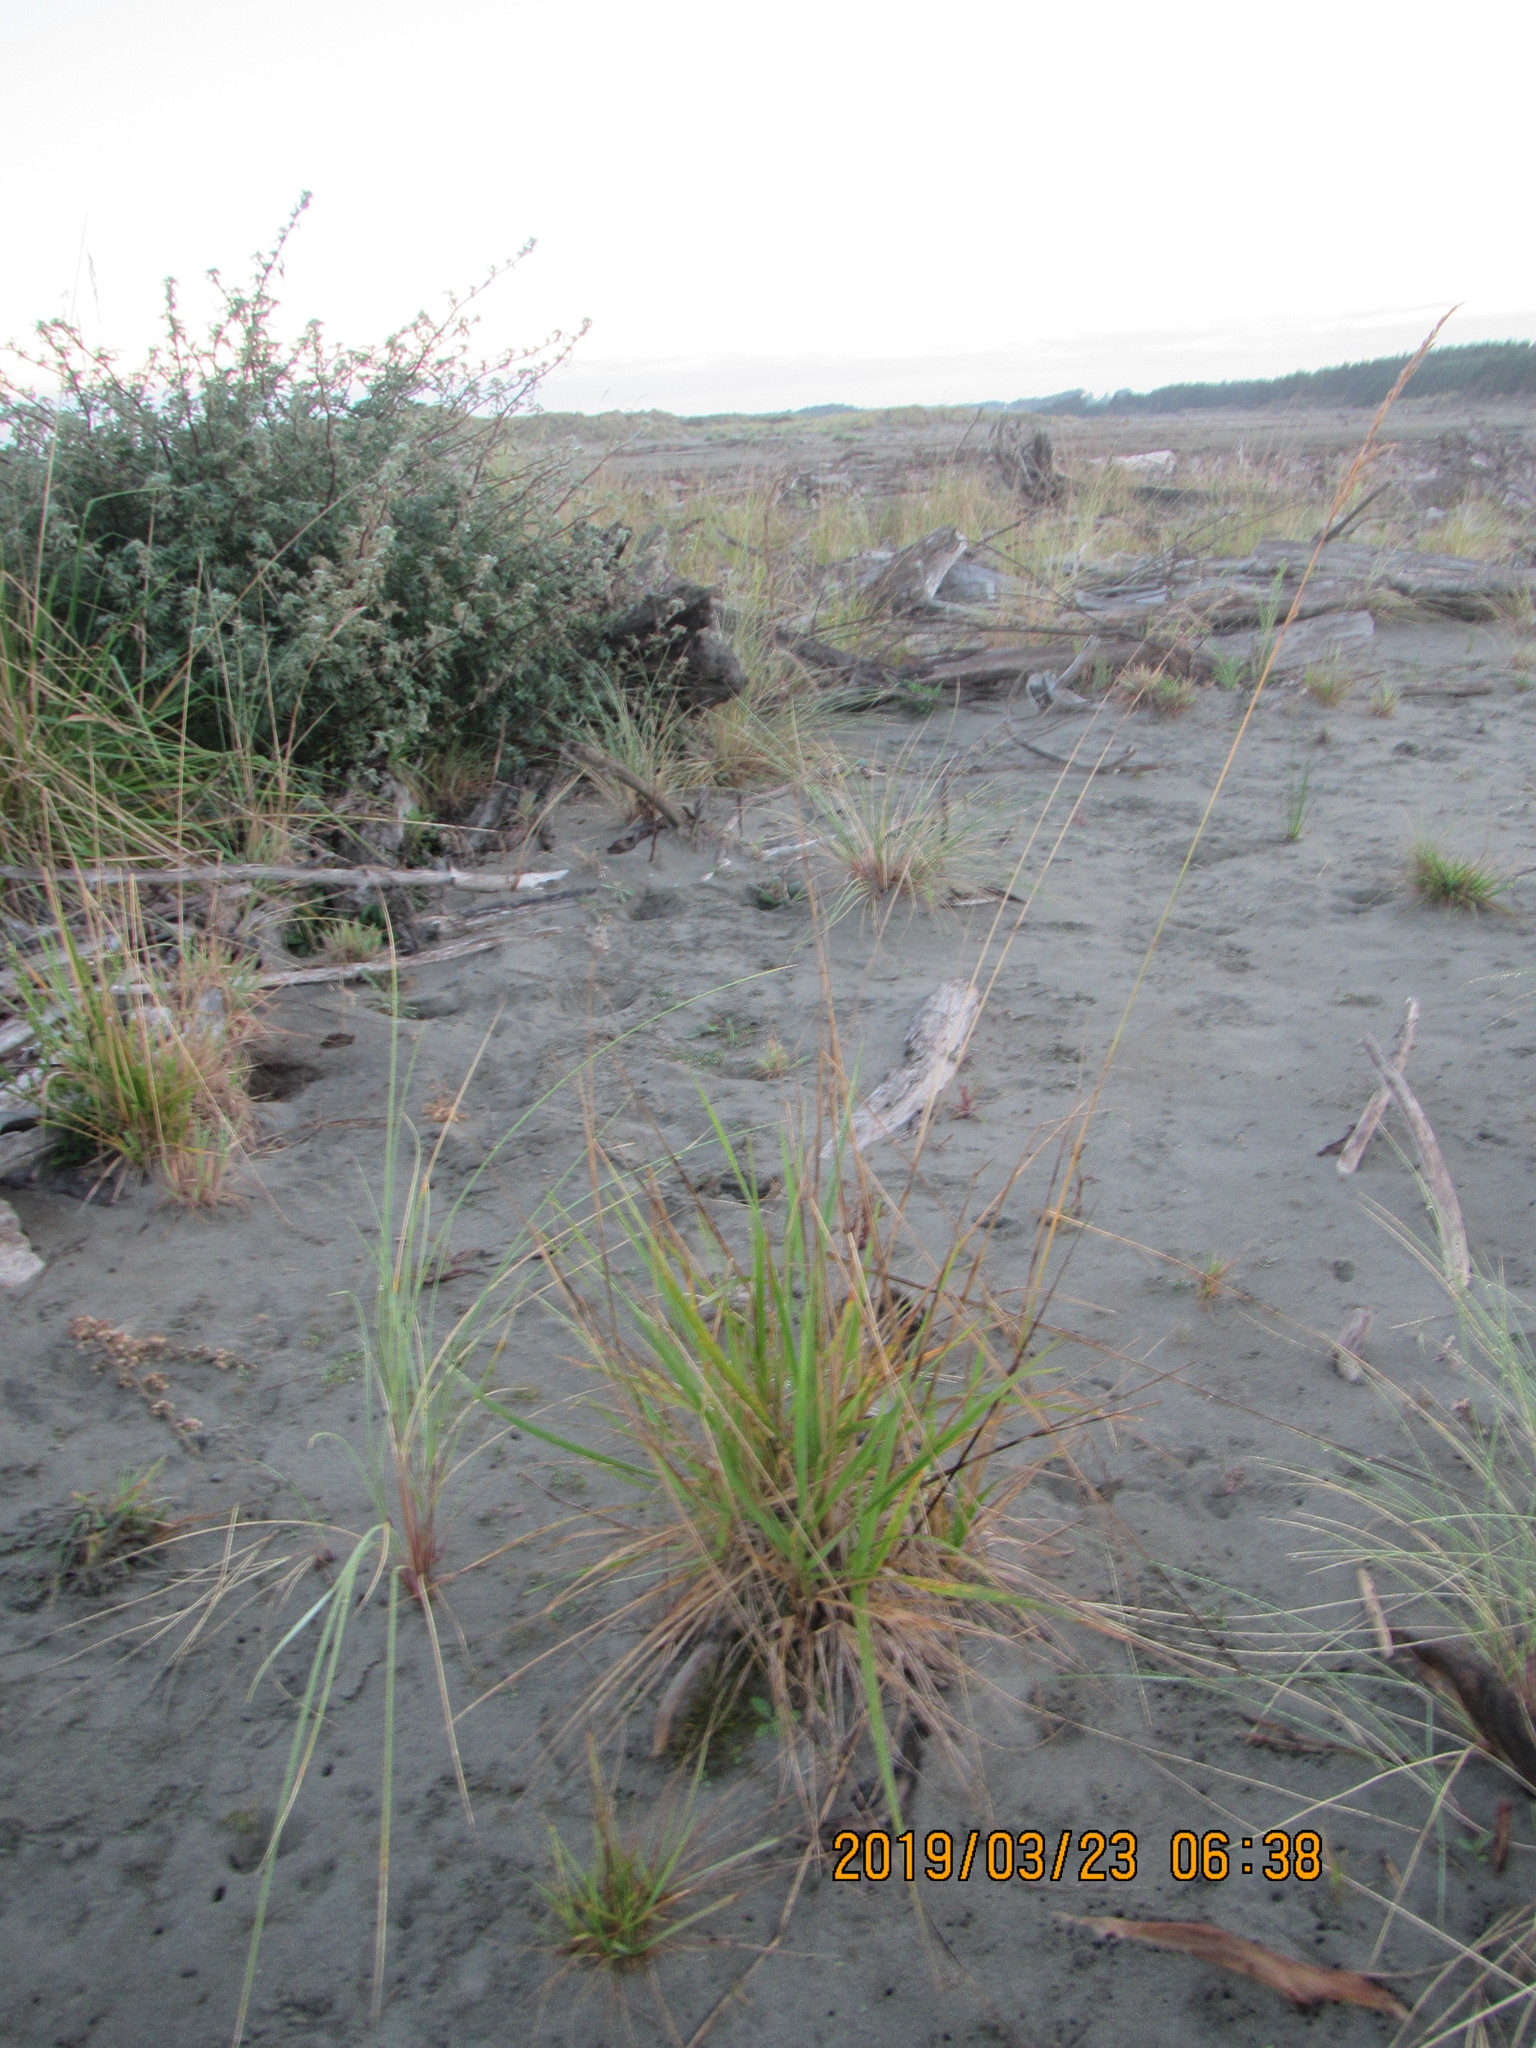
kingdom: Plantae
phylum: Tracheophyta
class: Liliopsida
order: Poales
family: Poaceae
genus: Lolium
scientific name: Lolium arundinaceum
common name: Reed fescue
